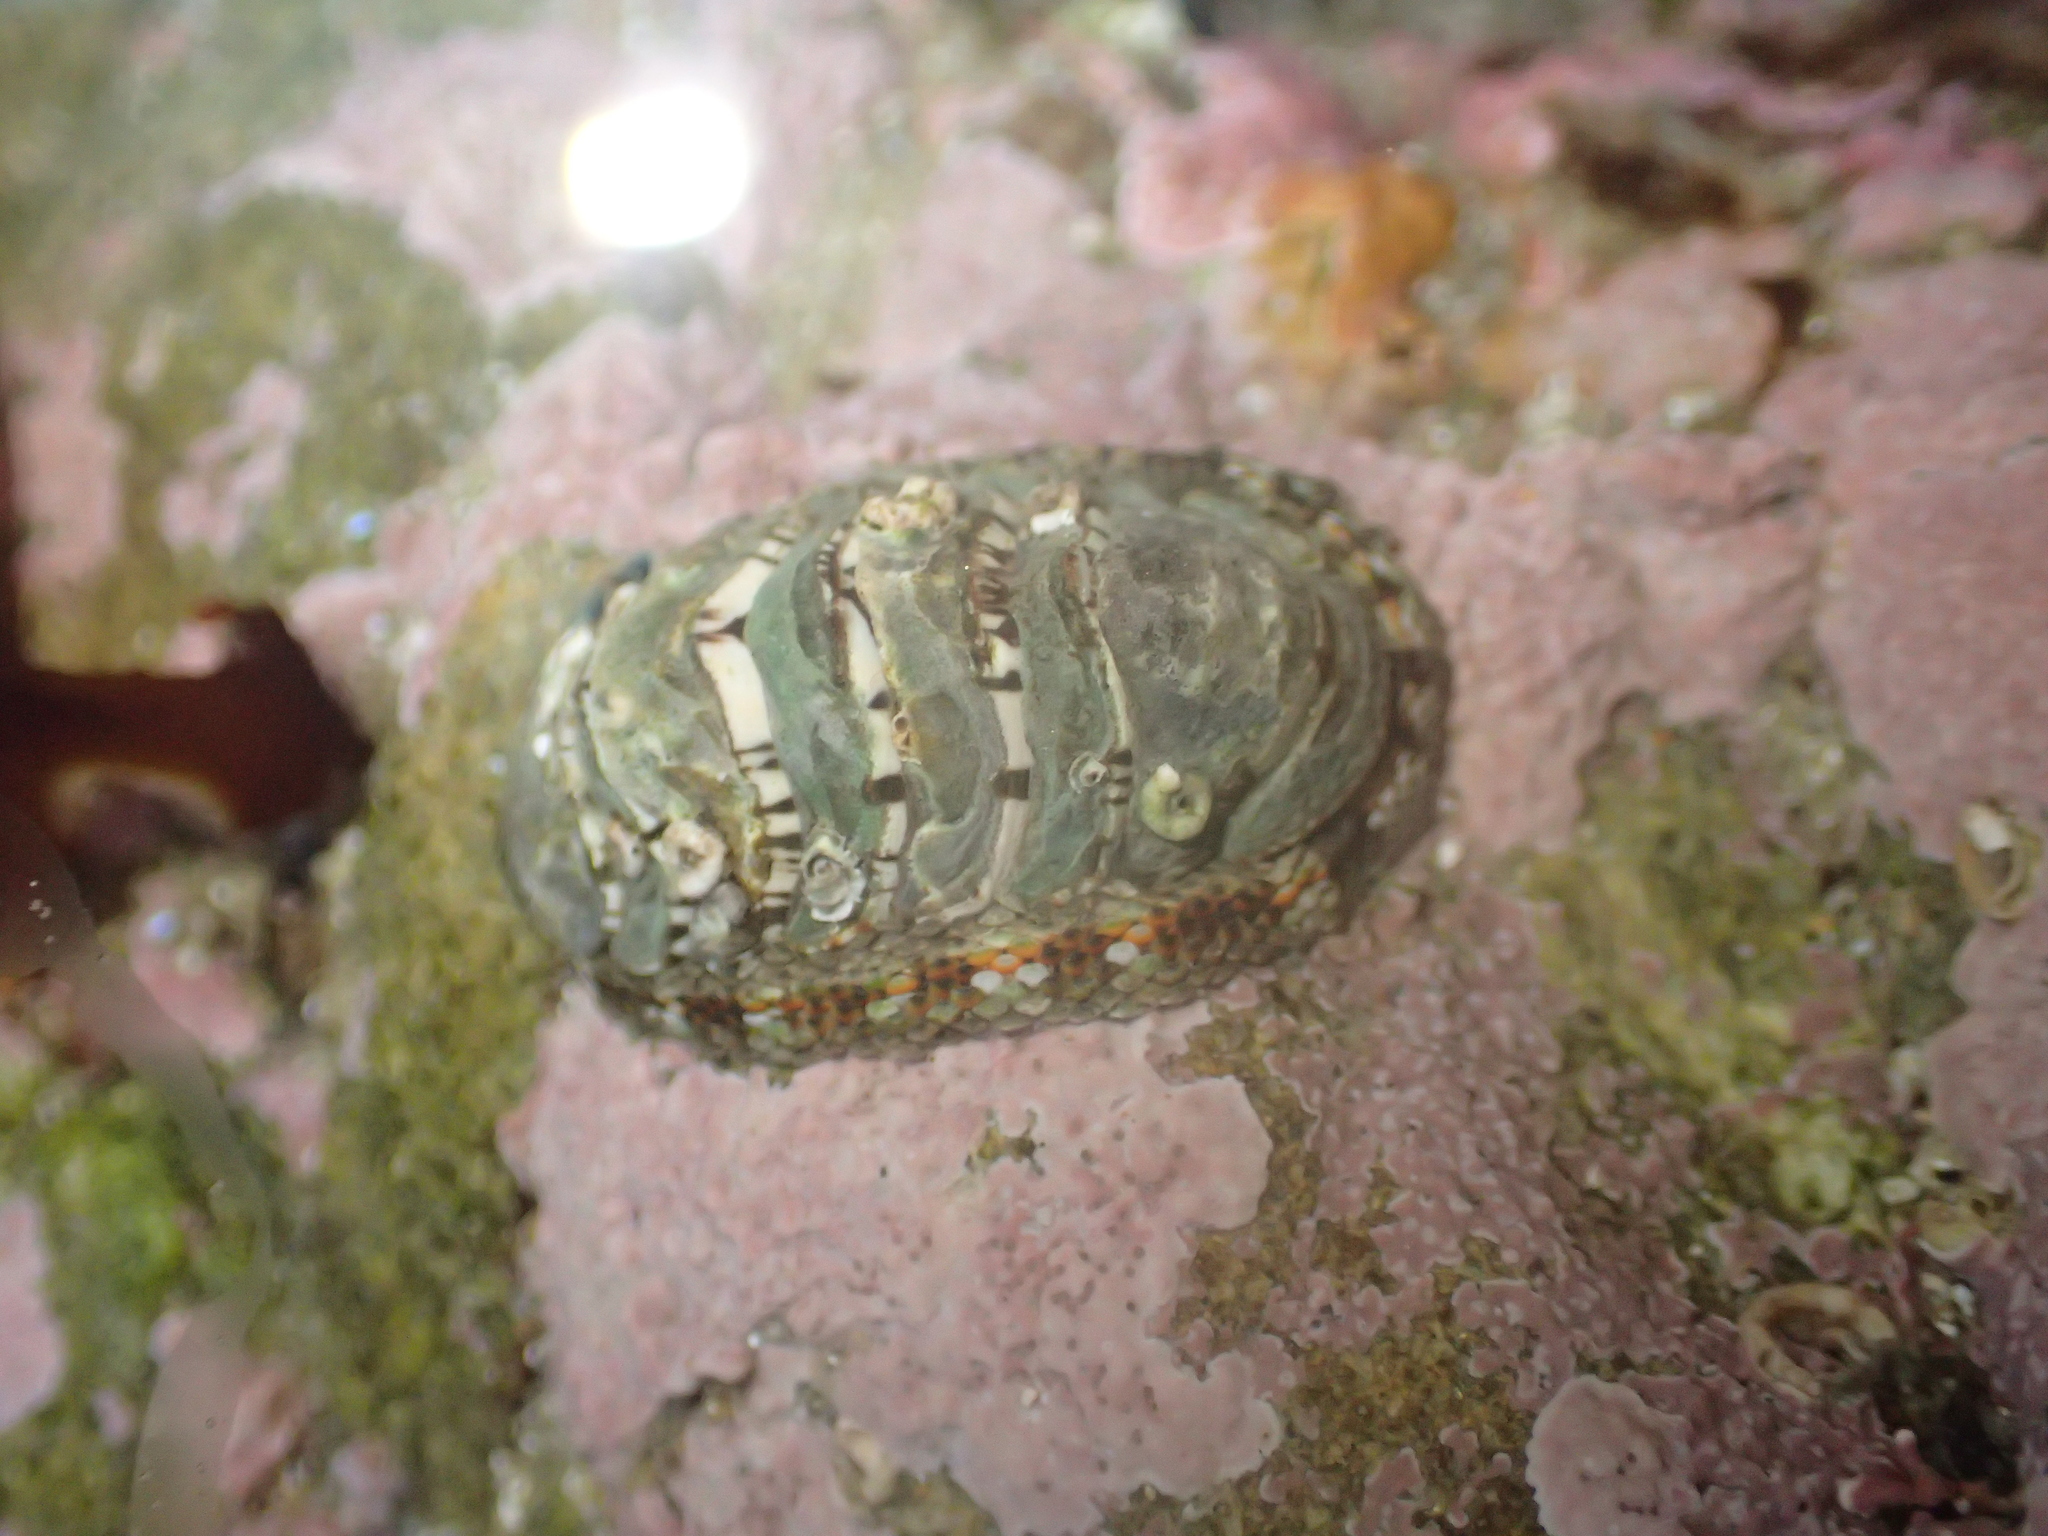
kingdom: Animalia
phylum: Mollusca
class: Polyplacophora
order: Chitonida
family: Chitonidae
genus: Sypharochiton
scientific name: Sypharochiton sinclairi
